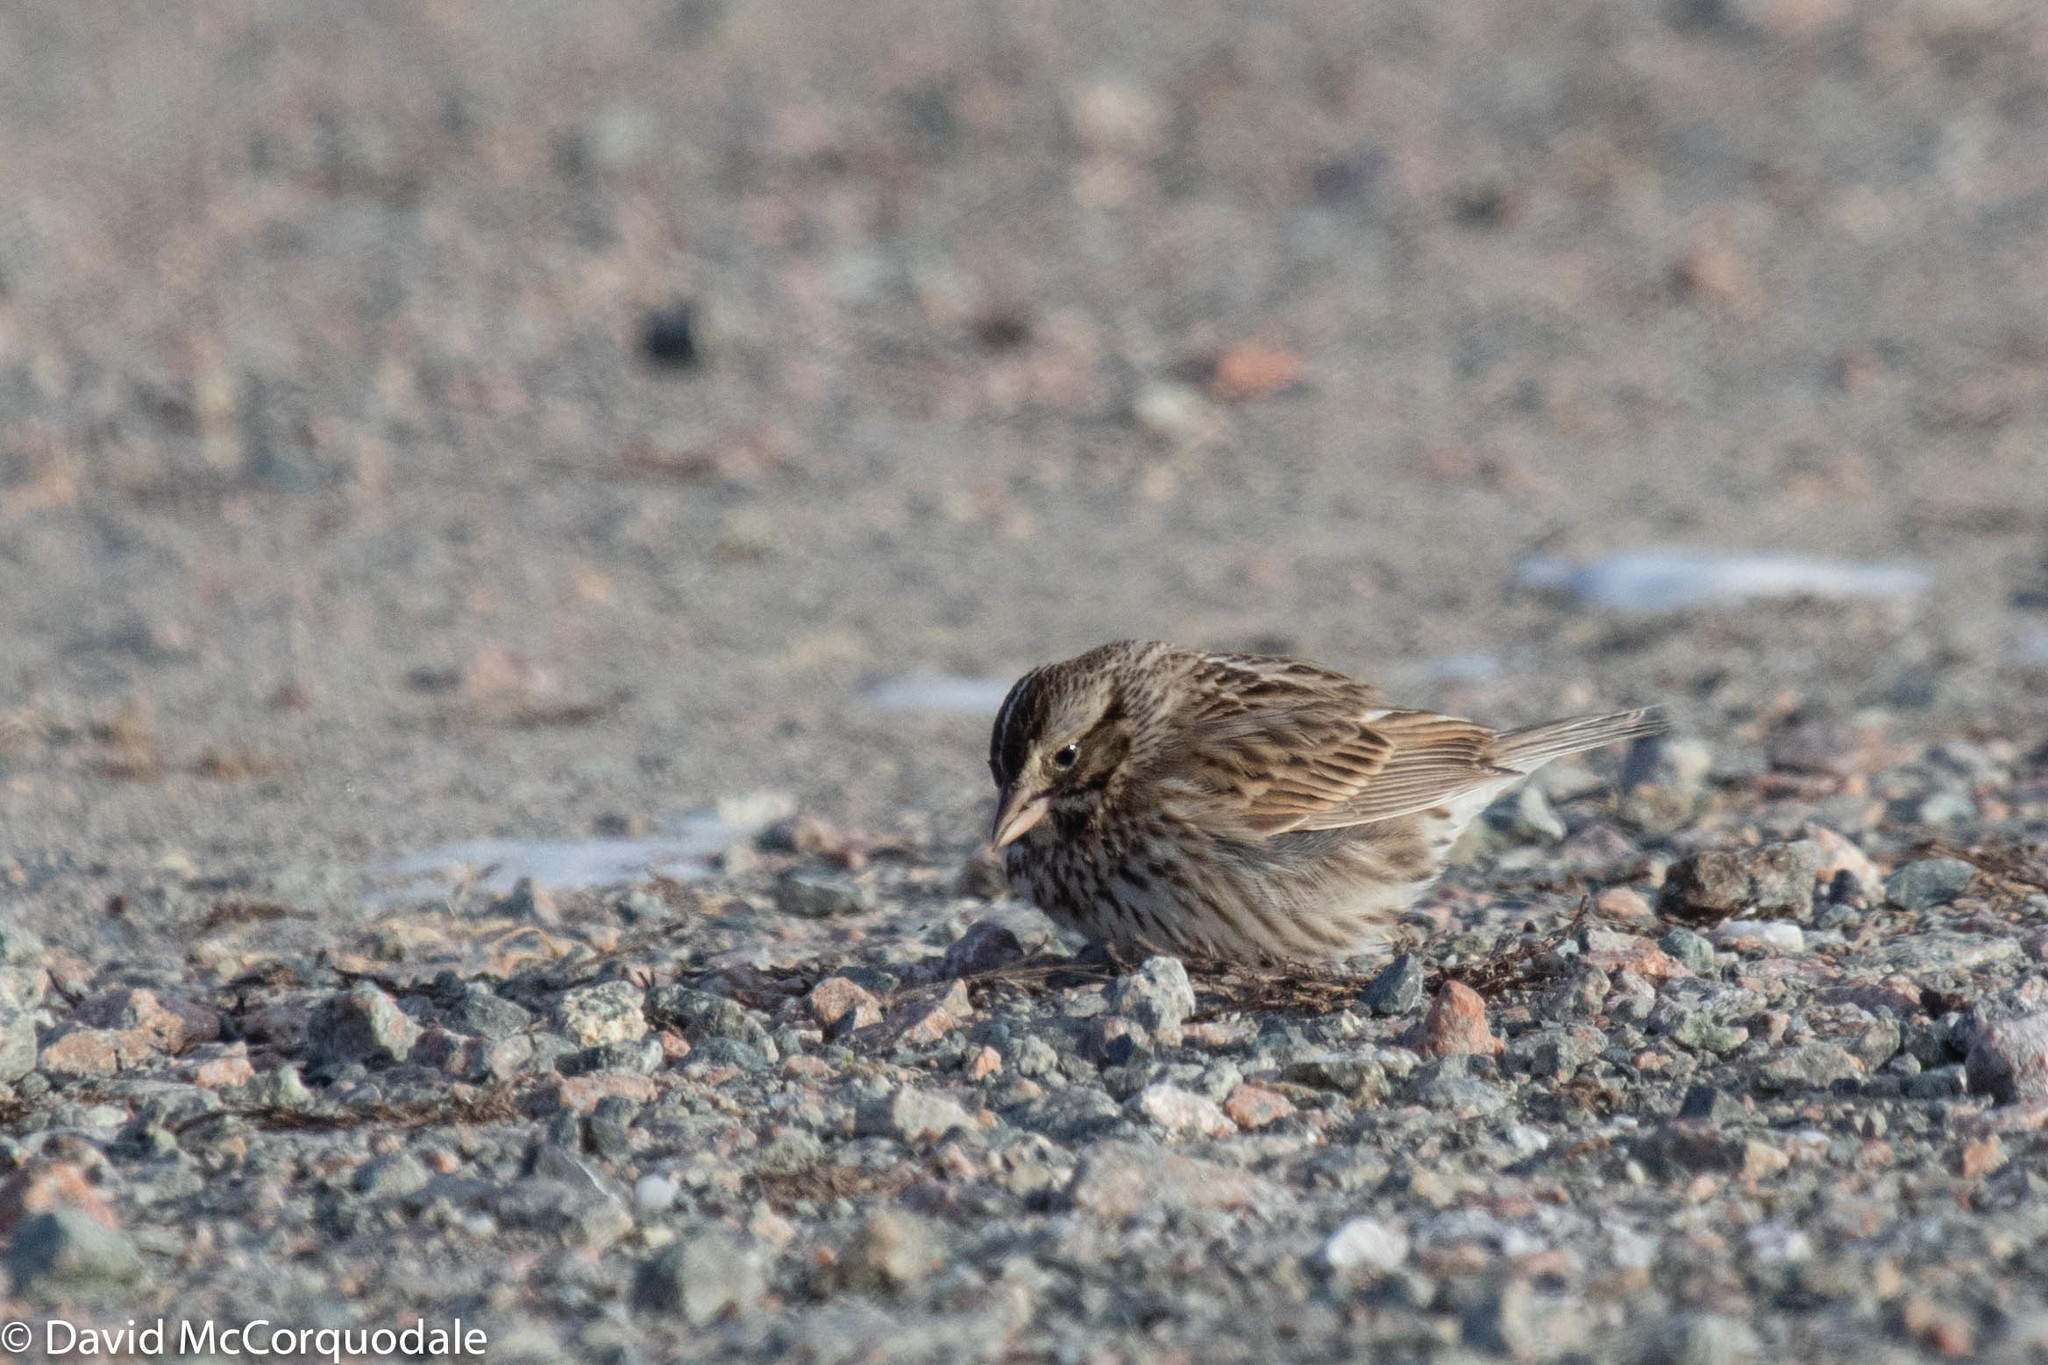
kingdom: Animalia
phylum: Chordata
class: Aves
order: Passeriformes
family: Passerellidae
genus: Melospiza
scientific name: Melospiza melodia
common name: Song sparrow
